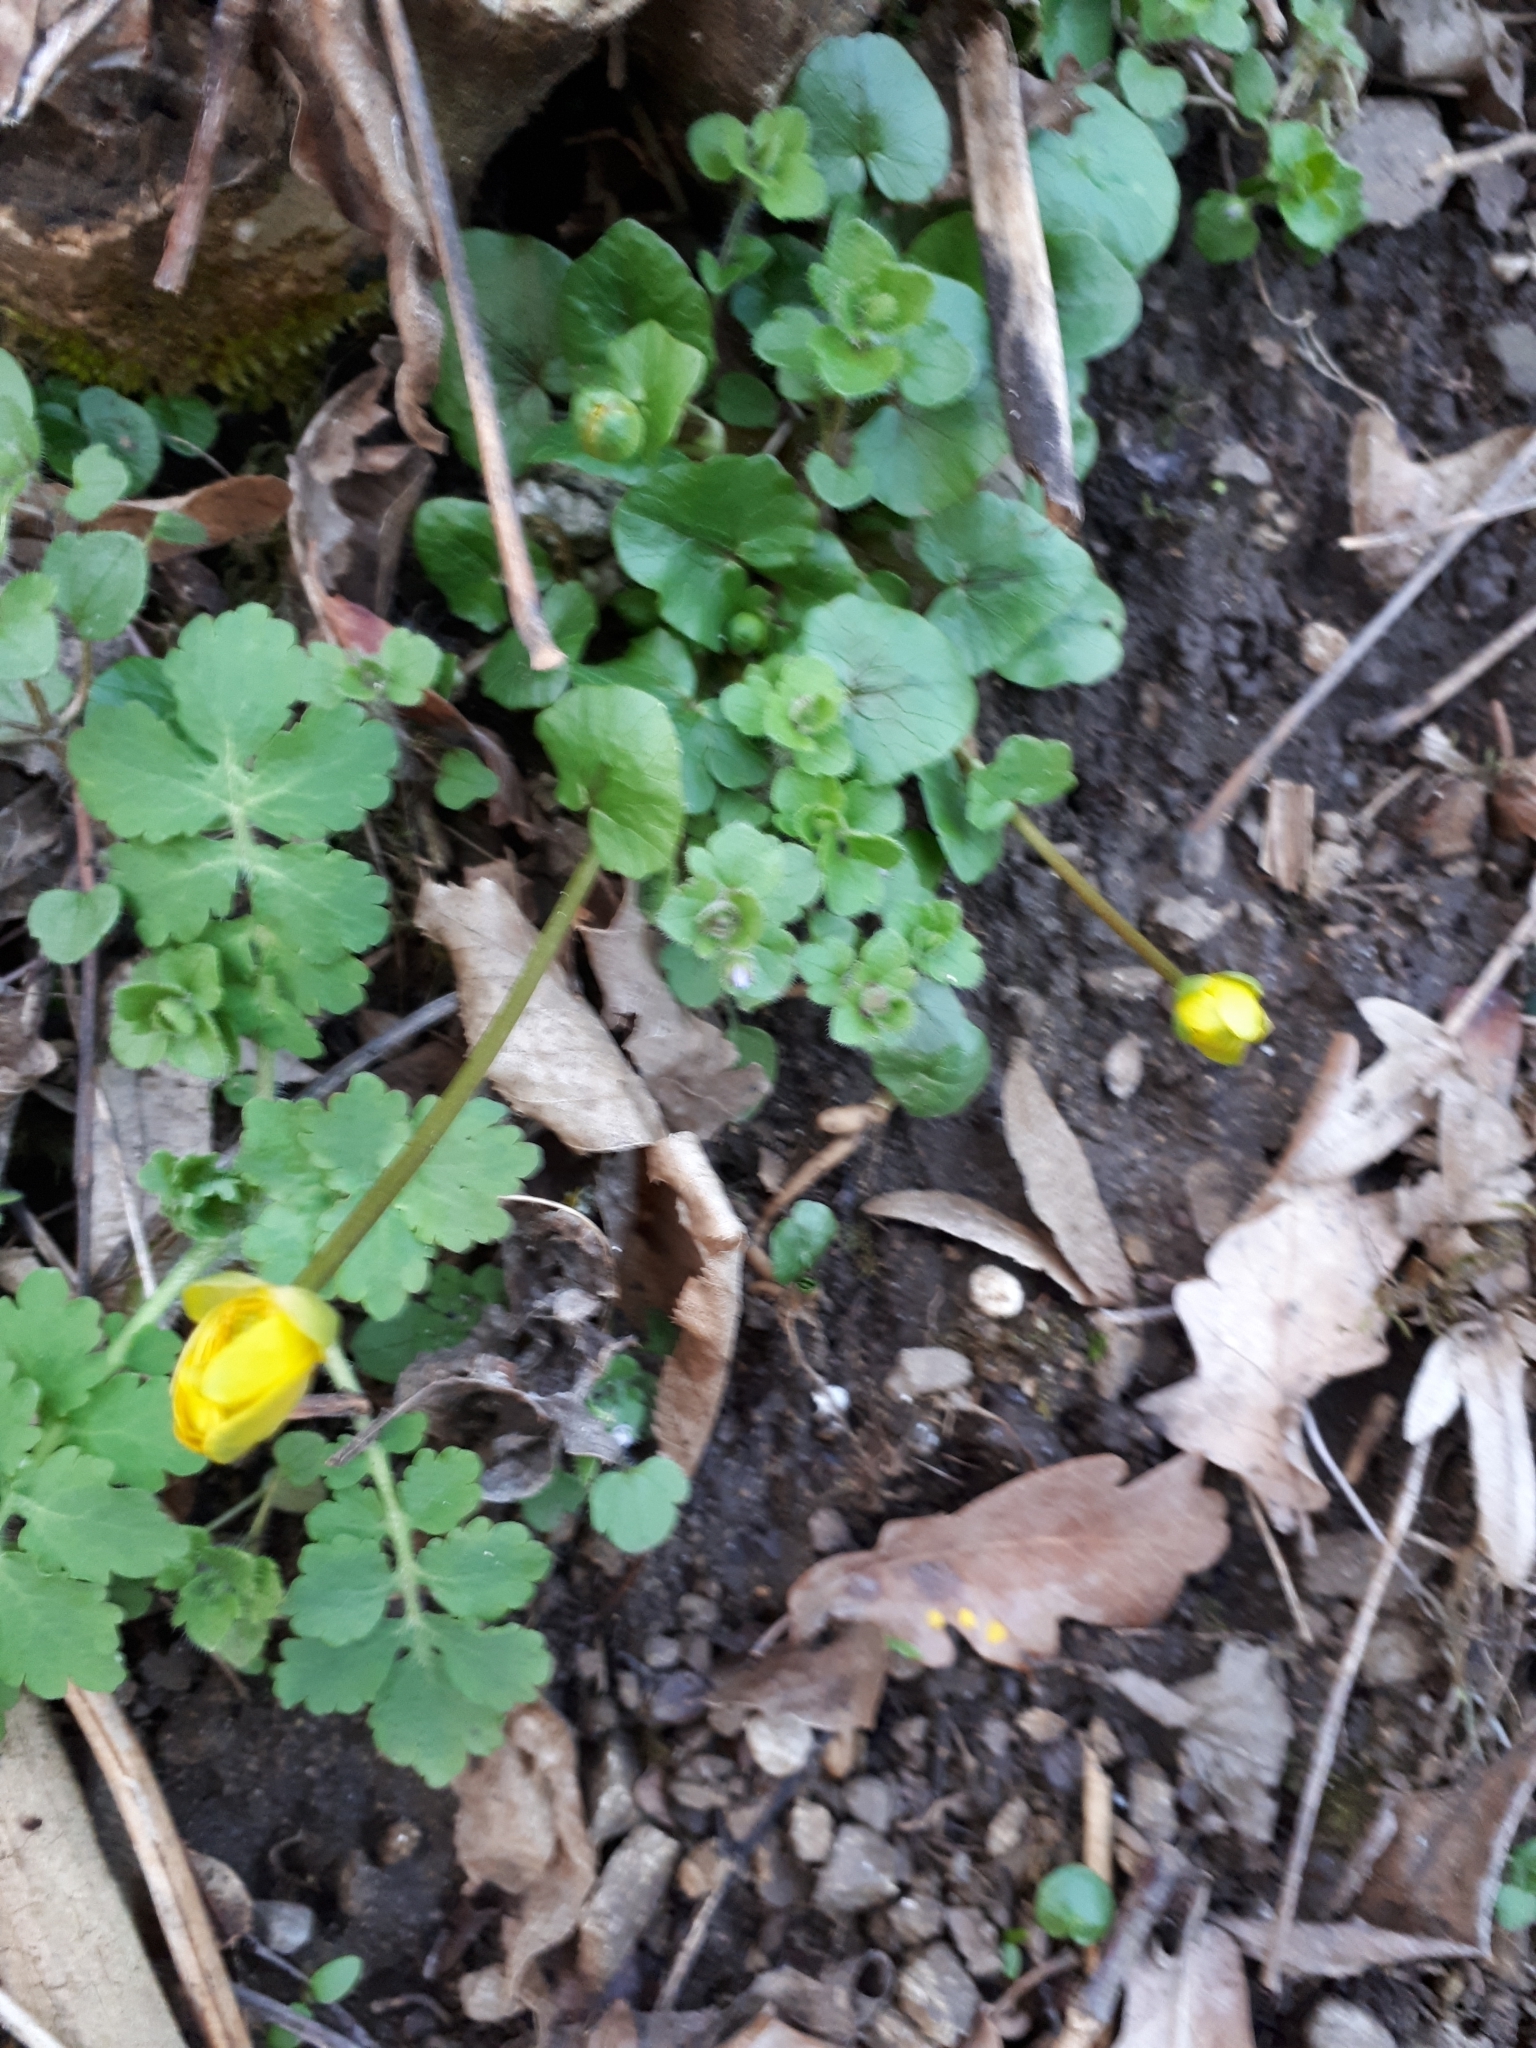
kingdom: Plantae
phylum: Tracheophyta
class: Magnoliopsida
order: Ranunculales
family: Ranunculaceae
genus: Ficaria
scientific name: Ficaria verna
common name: Lesser celandine
